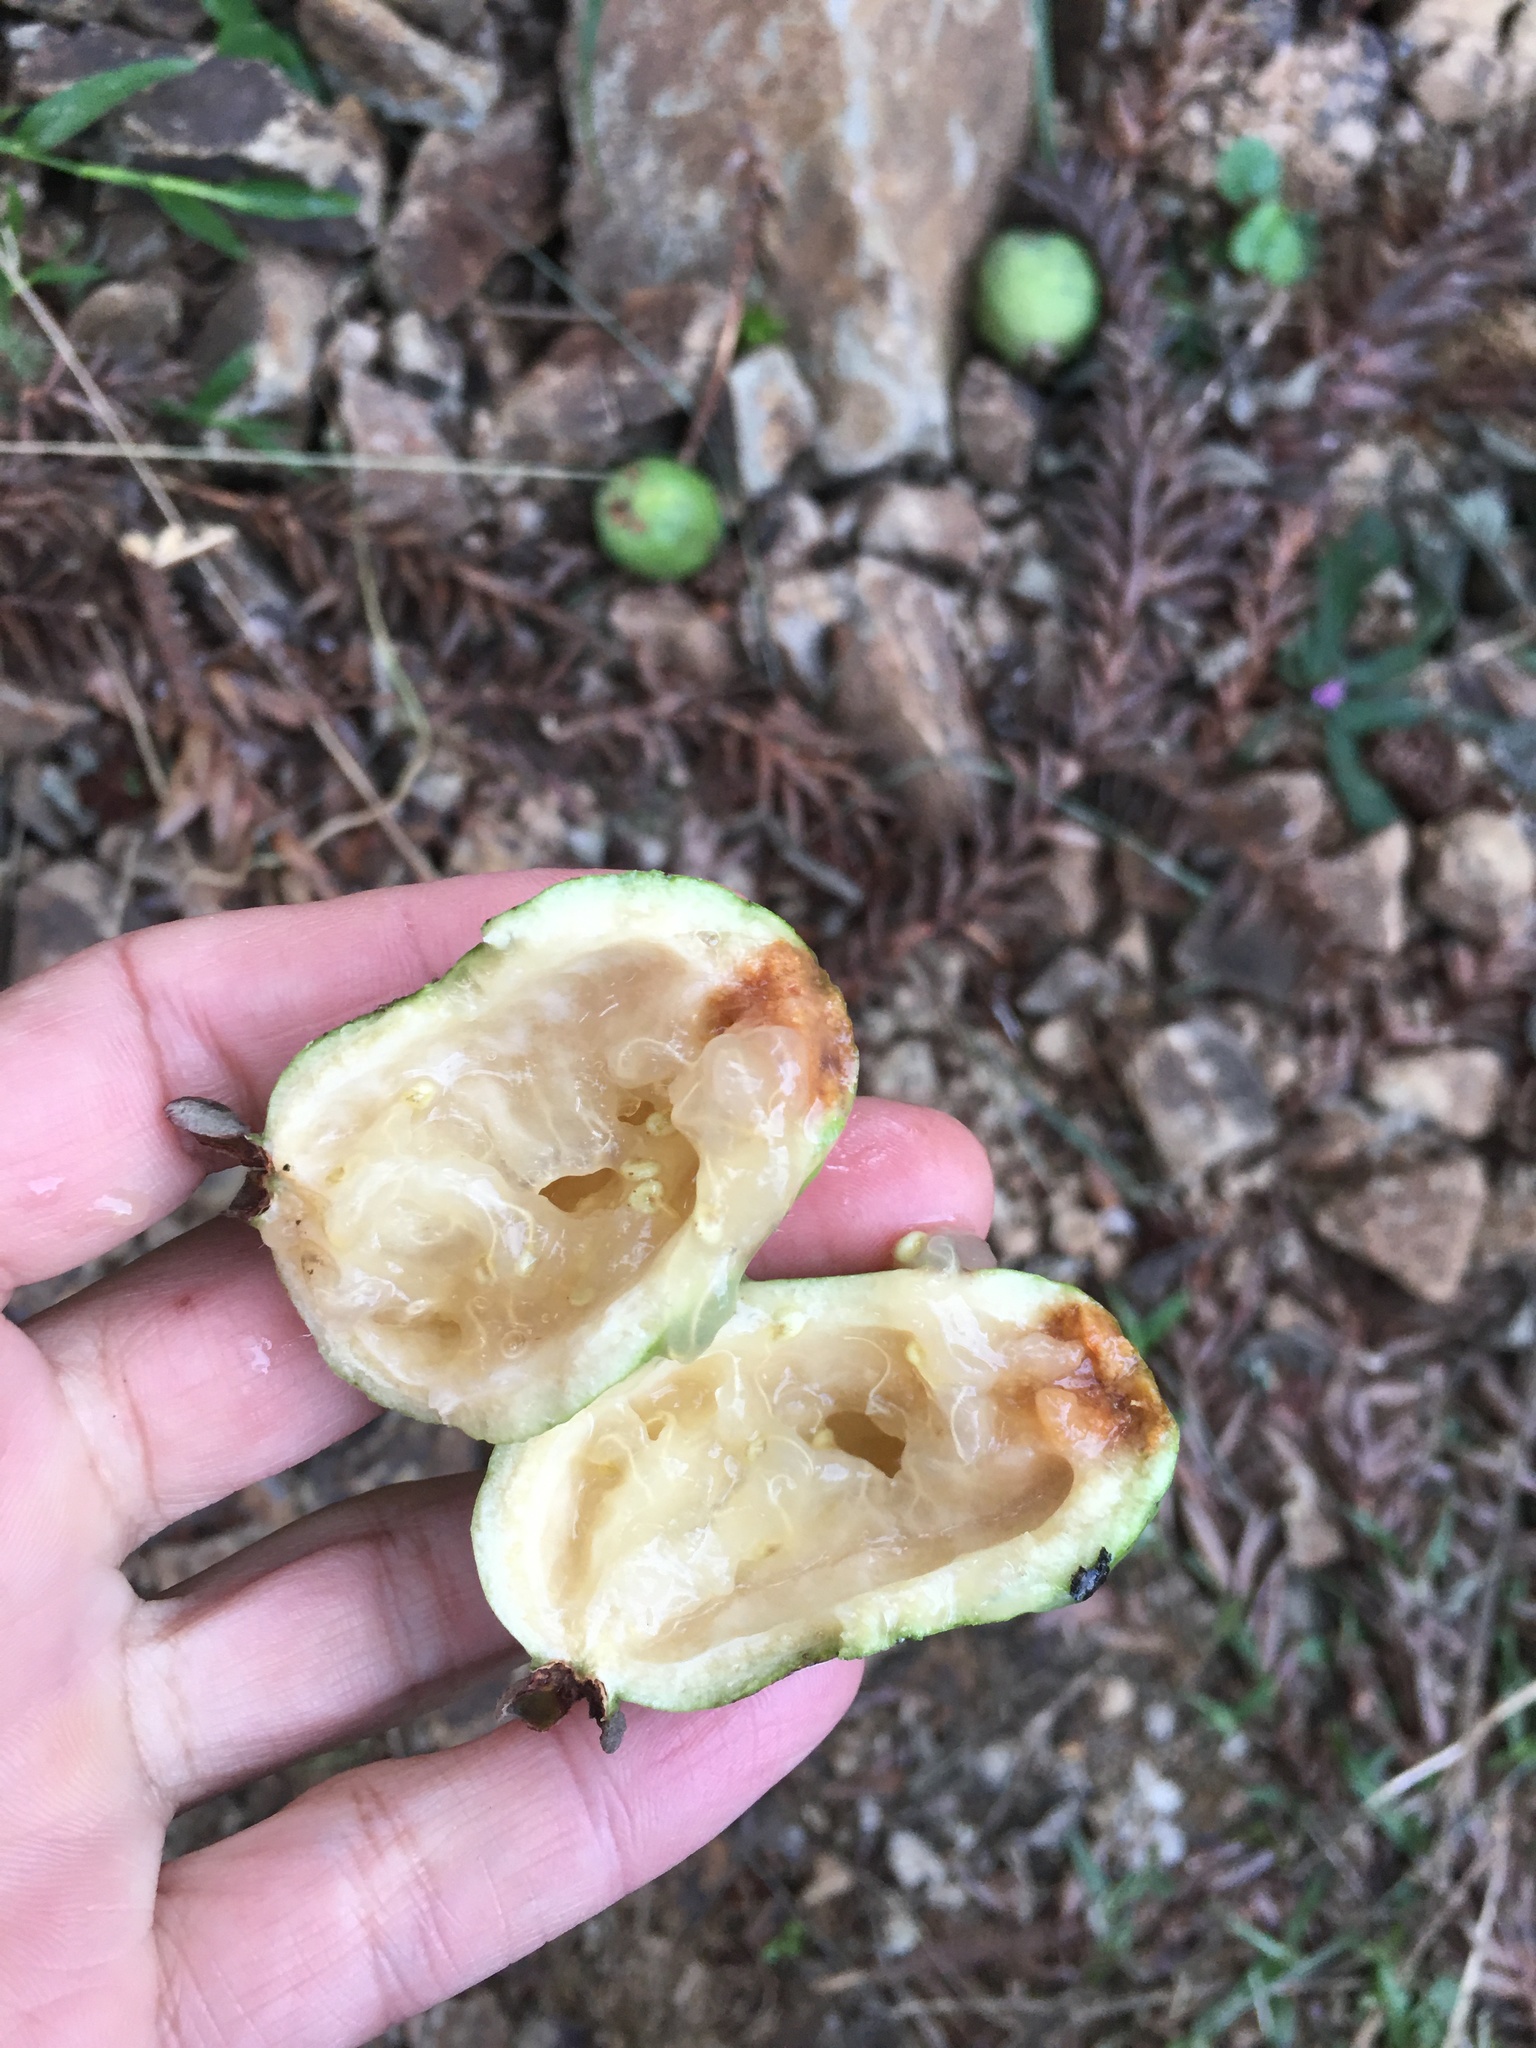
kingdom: Plantae
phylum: Tracheophyta
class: Magnoliopsida
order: Myrtales
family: Myrtaceae
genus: Feijoa
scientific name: Feijoa sellowiana
